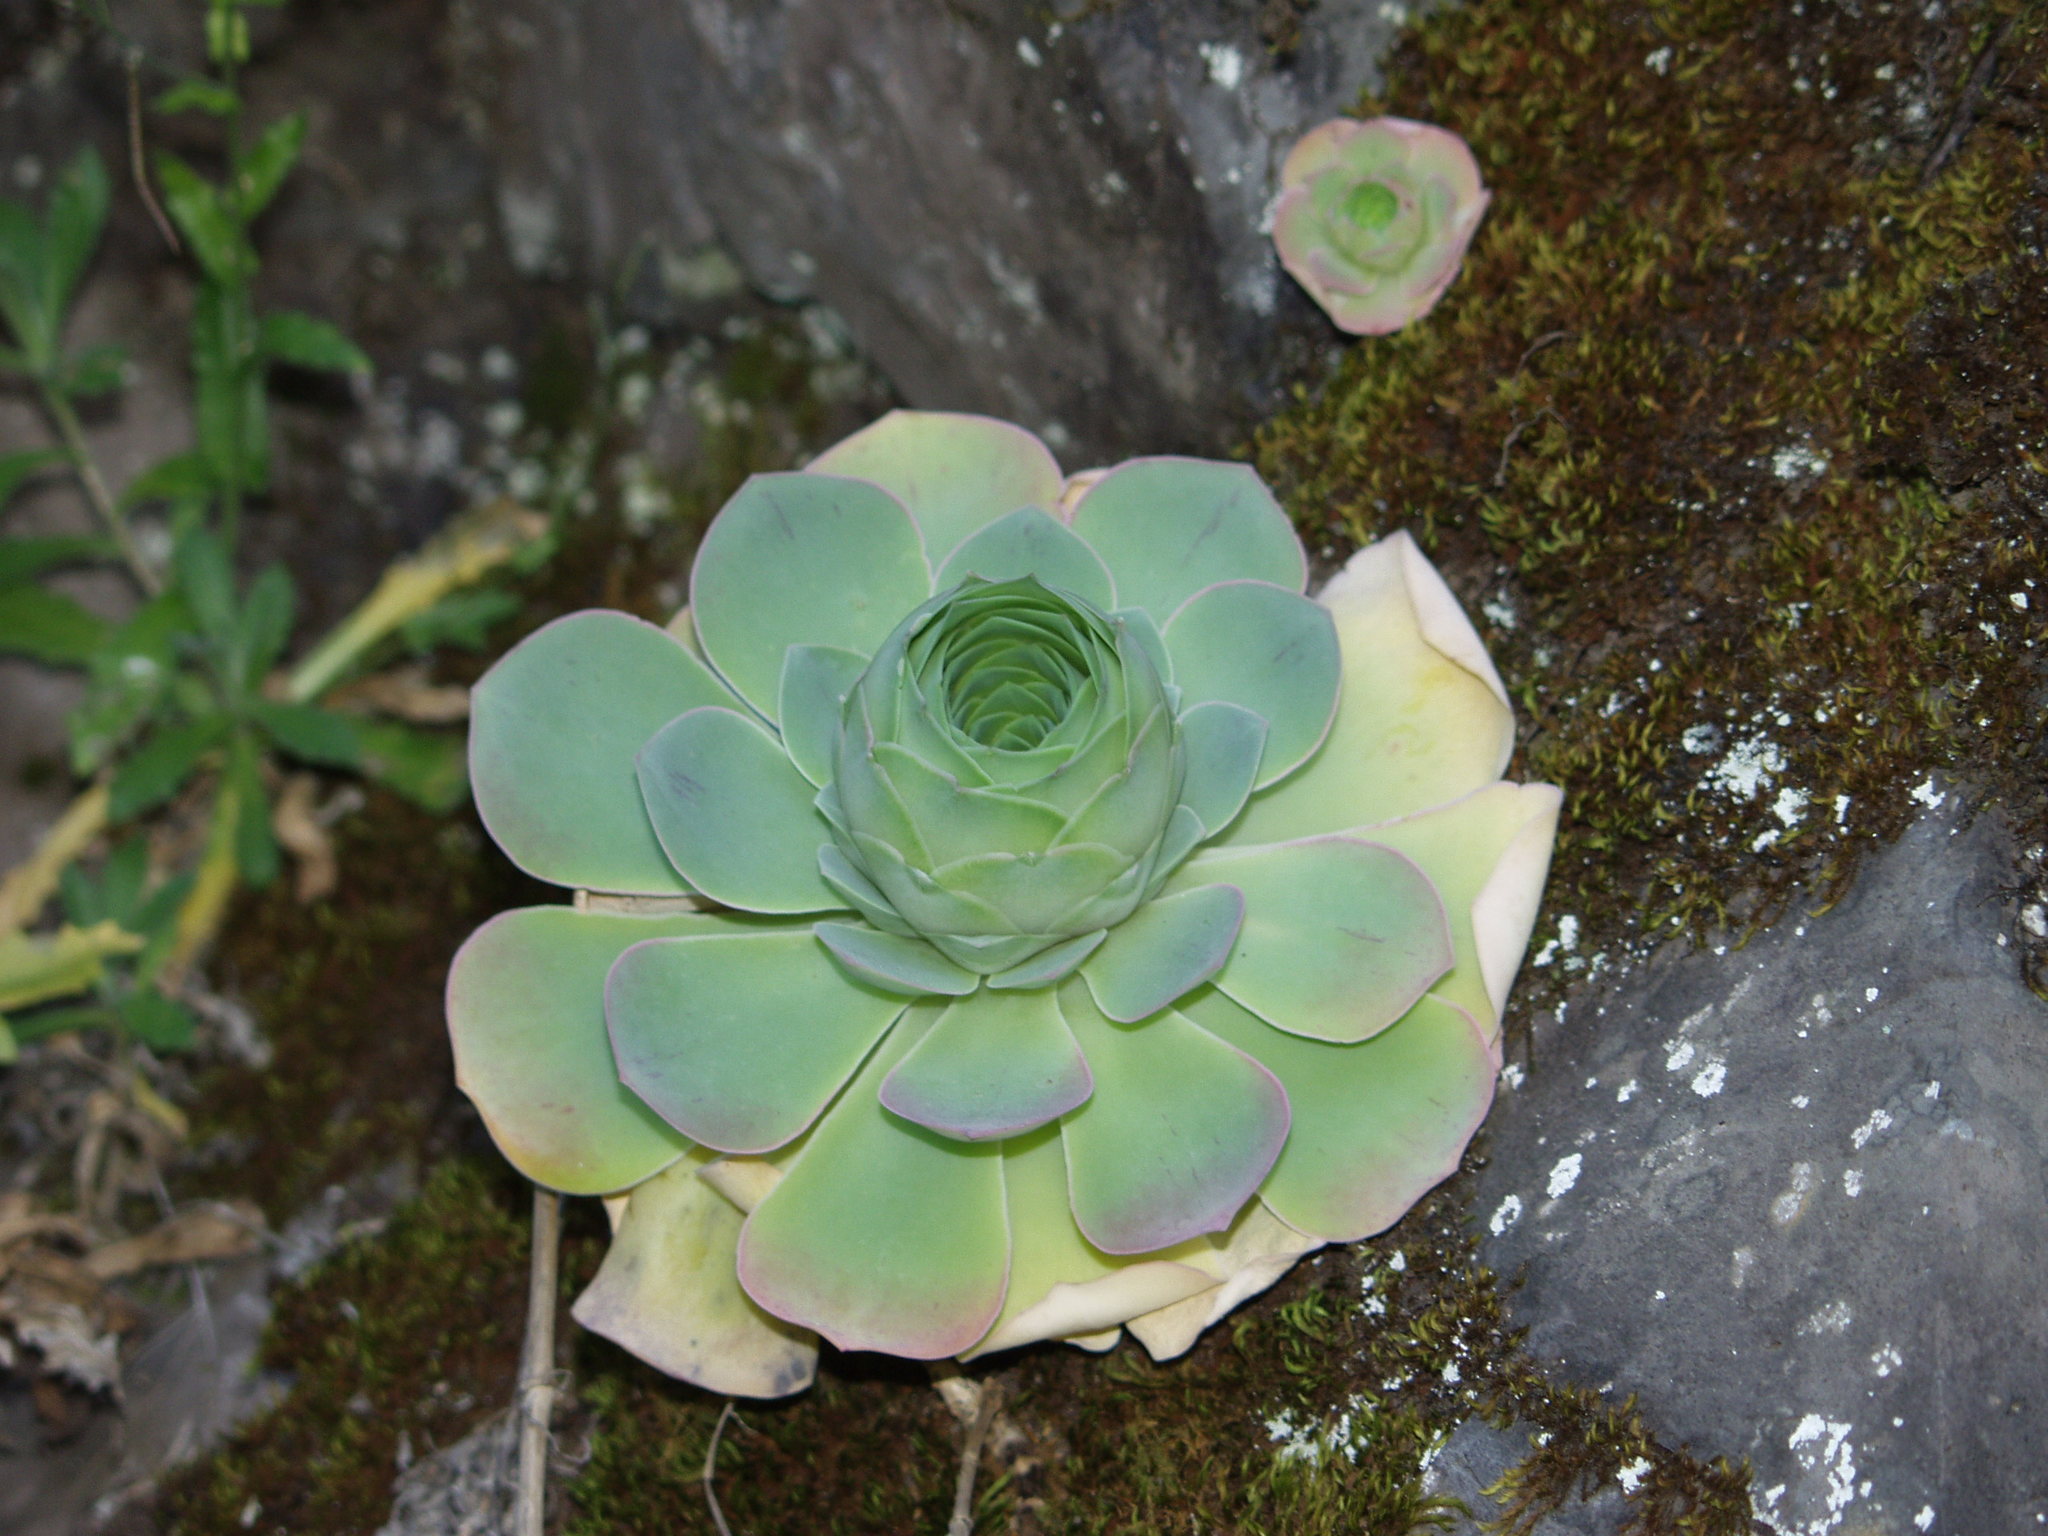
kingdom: Plantae
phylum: Tracheophyta
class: Magnoliopsida
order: Saxifragales
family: Crassulaceae
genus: Aeonium
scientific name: Aeonium diplocyclum
